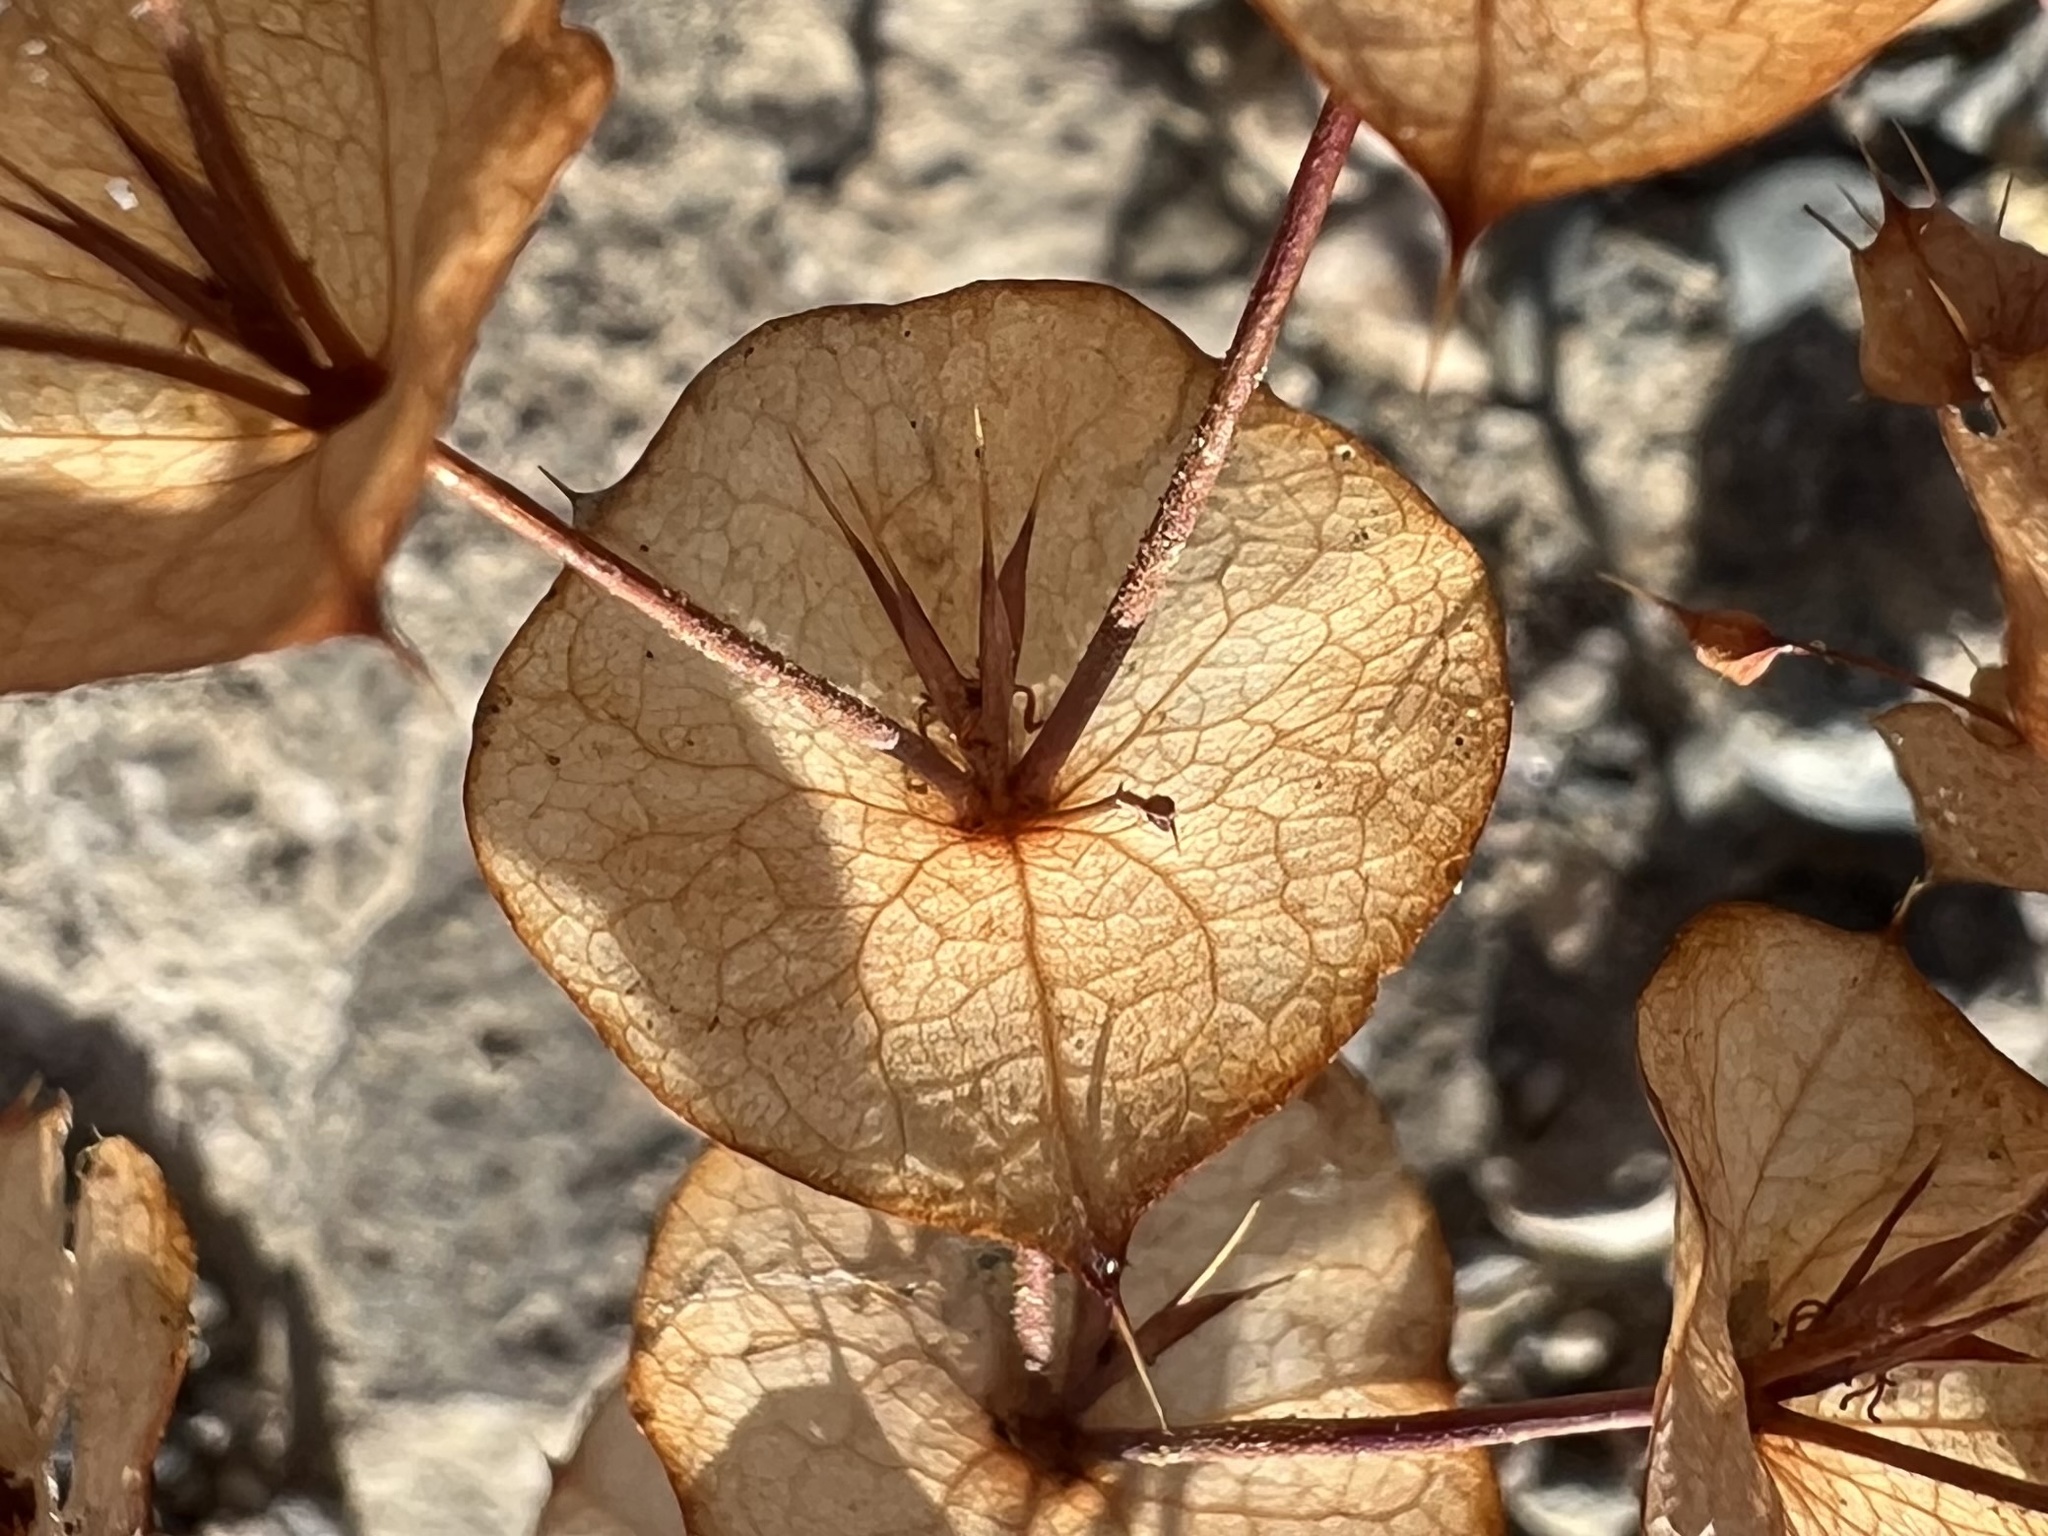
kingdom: Plantae
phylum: Tracheophyta
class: Magnoliopsida
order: Caryophyllales
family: Polygonaceae
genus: Oxytheca
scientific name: Oxytheca perfoliata
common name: Round-leaf puncturebract
